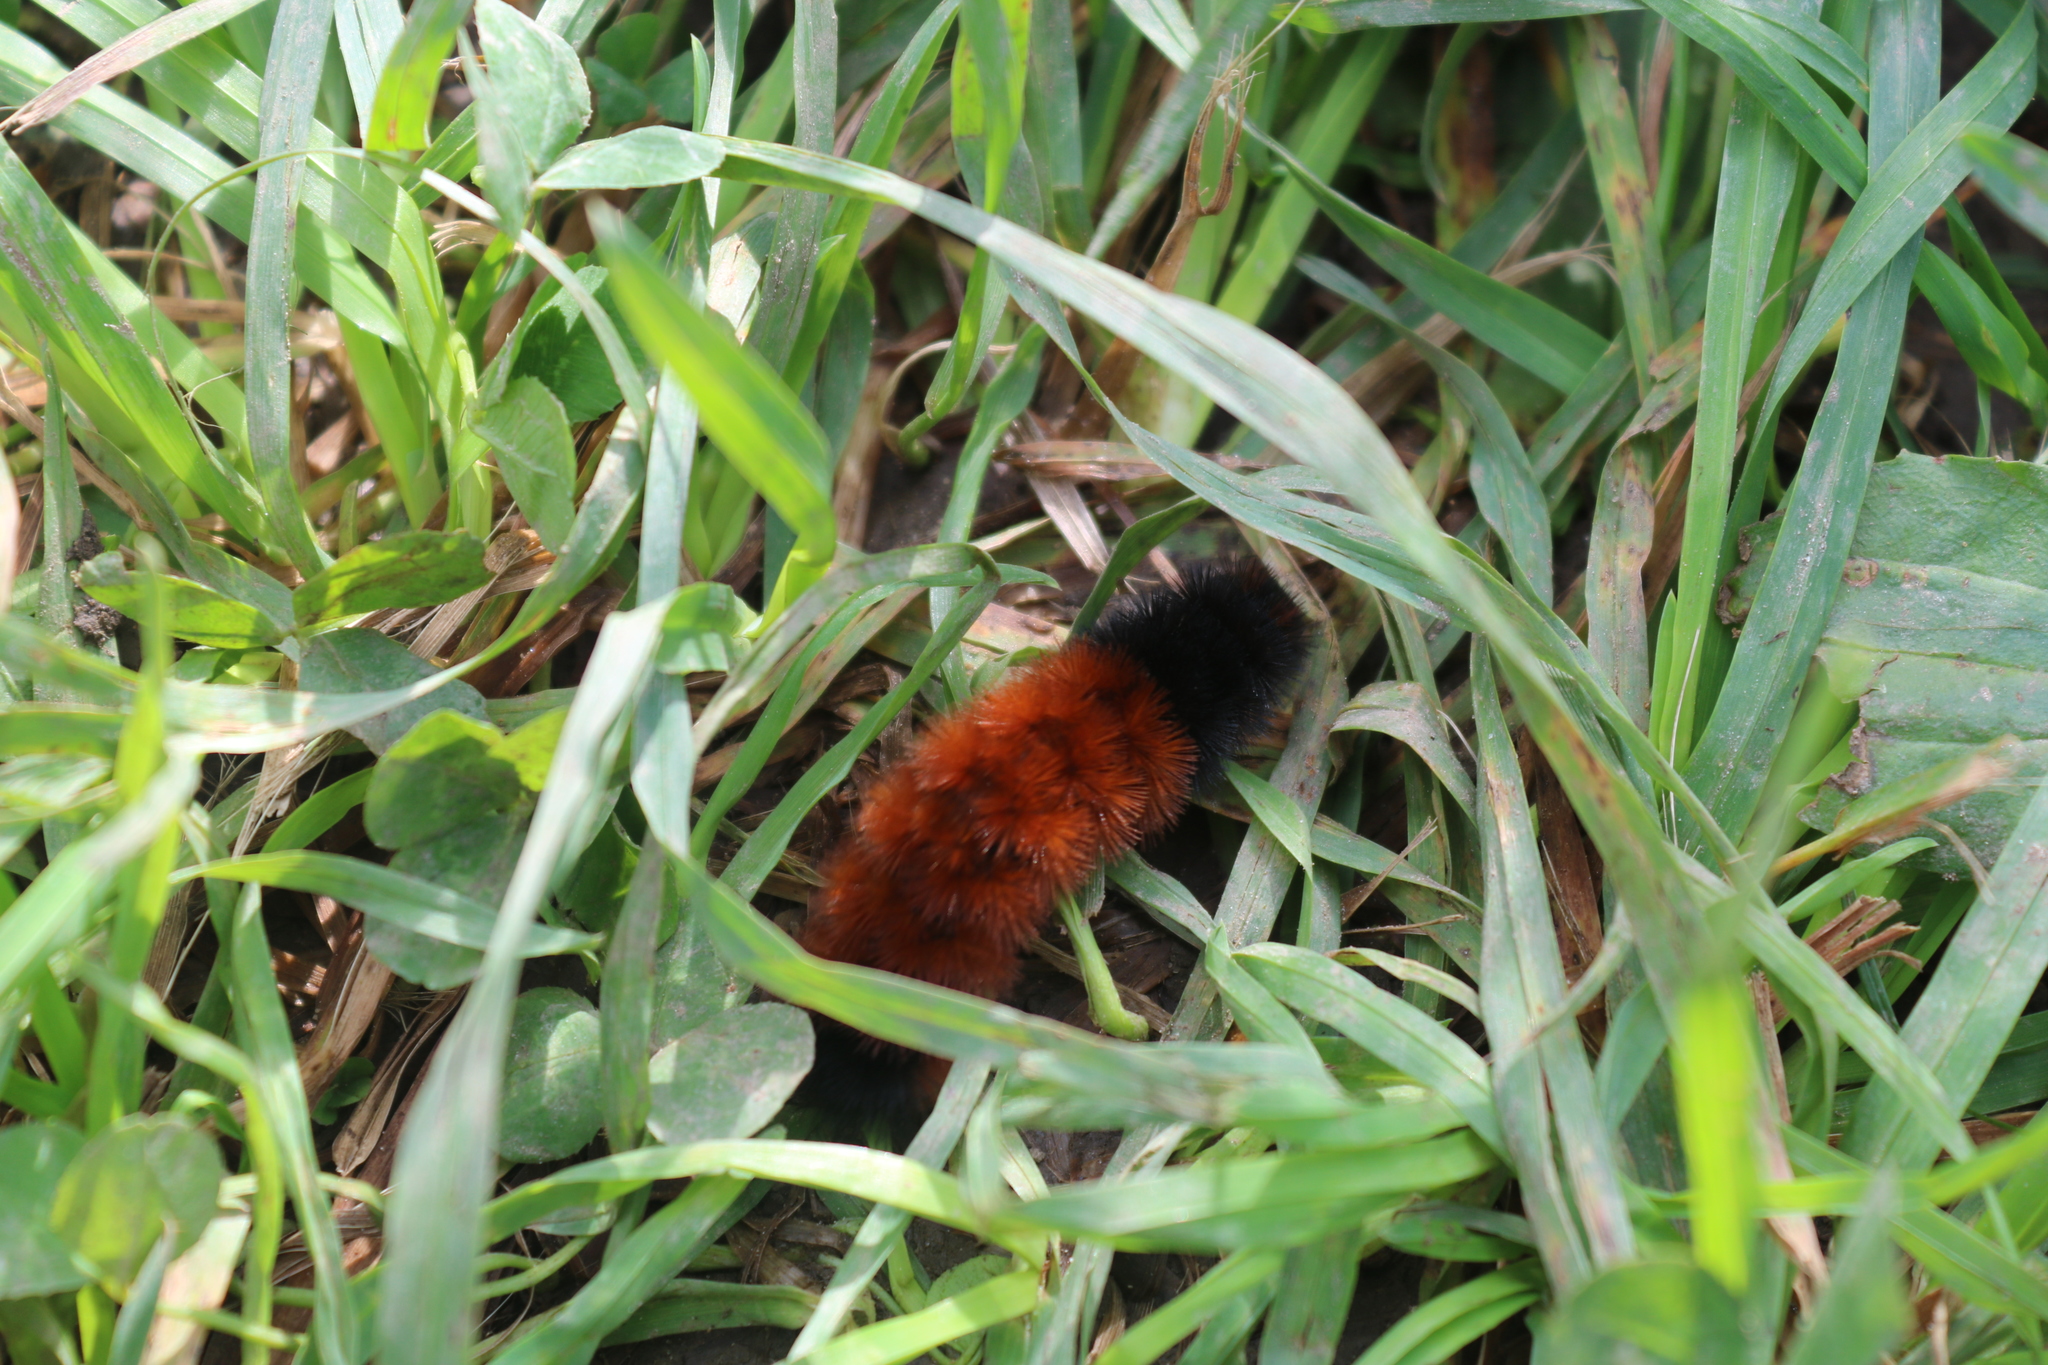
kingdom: Animalia
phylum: Arthropoda
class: Insecta
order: Lepidoptera
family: Erebidae
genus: Pyrrharctia
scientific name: Pyrrharctia isabella
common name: Isabella tiger moth
